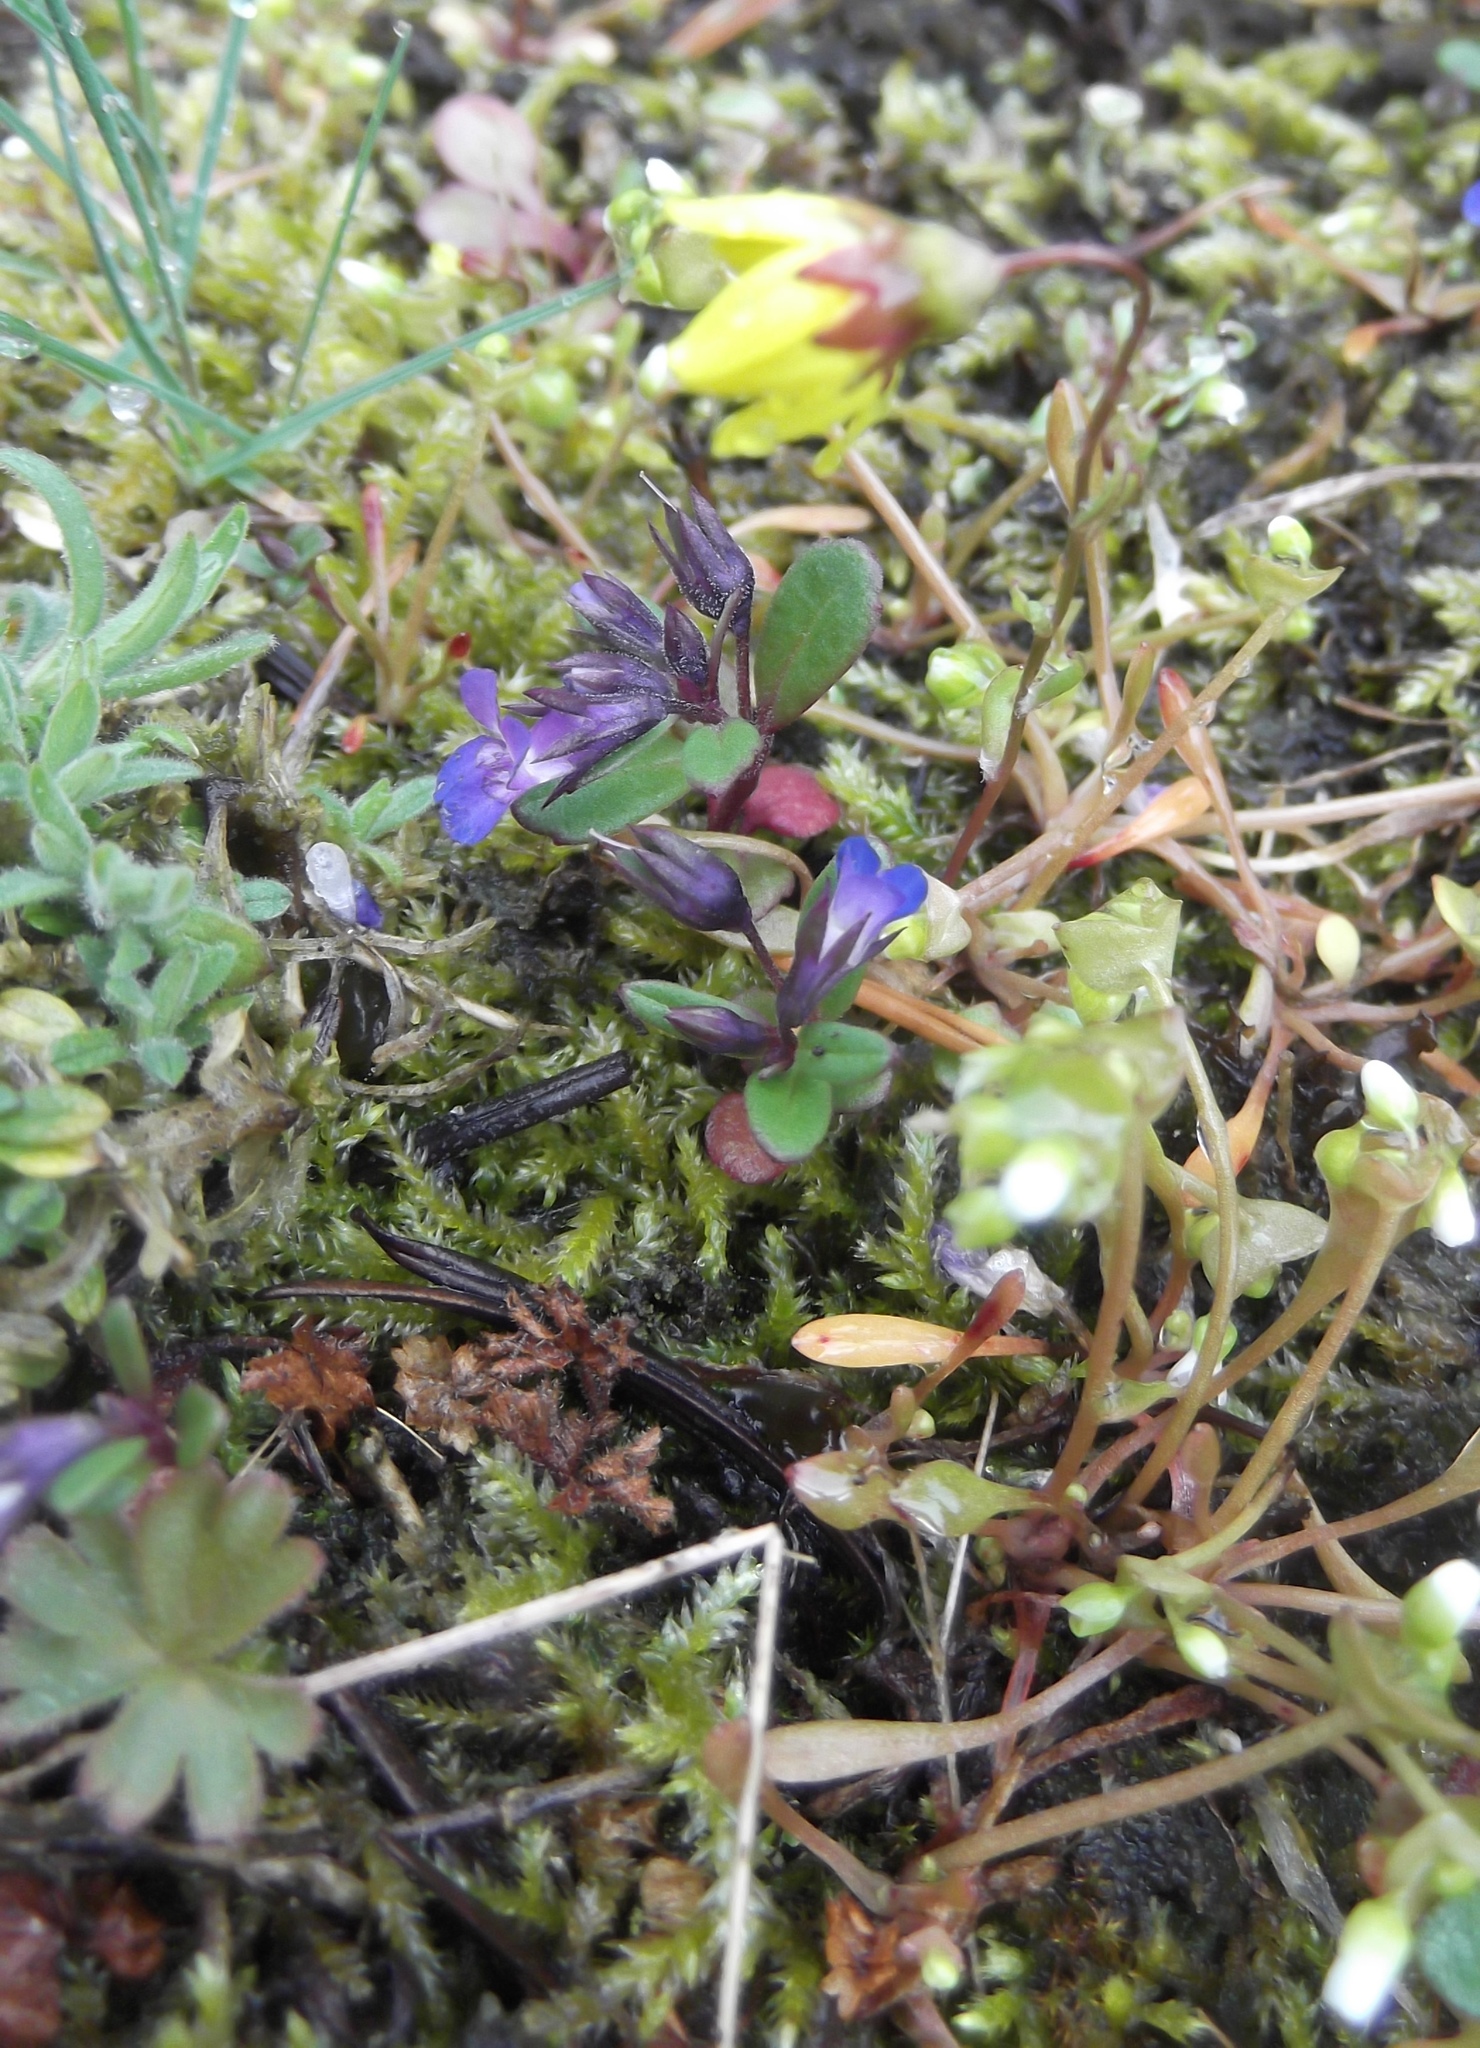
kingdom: Plantae
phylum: Tracheophyta
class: Magnoliopsida
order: Asterales
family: Asteraceae
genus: Crocidium
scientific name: Crocidium multicaule
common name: Common spring gold
